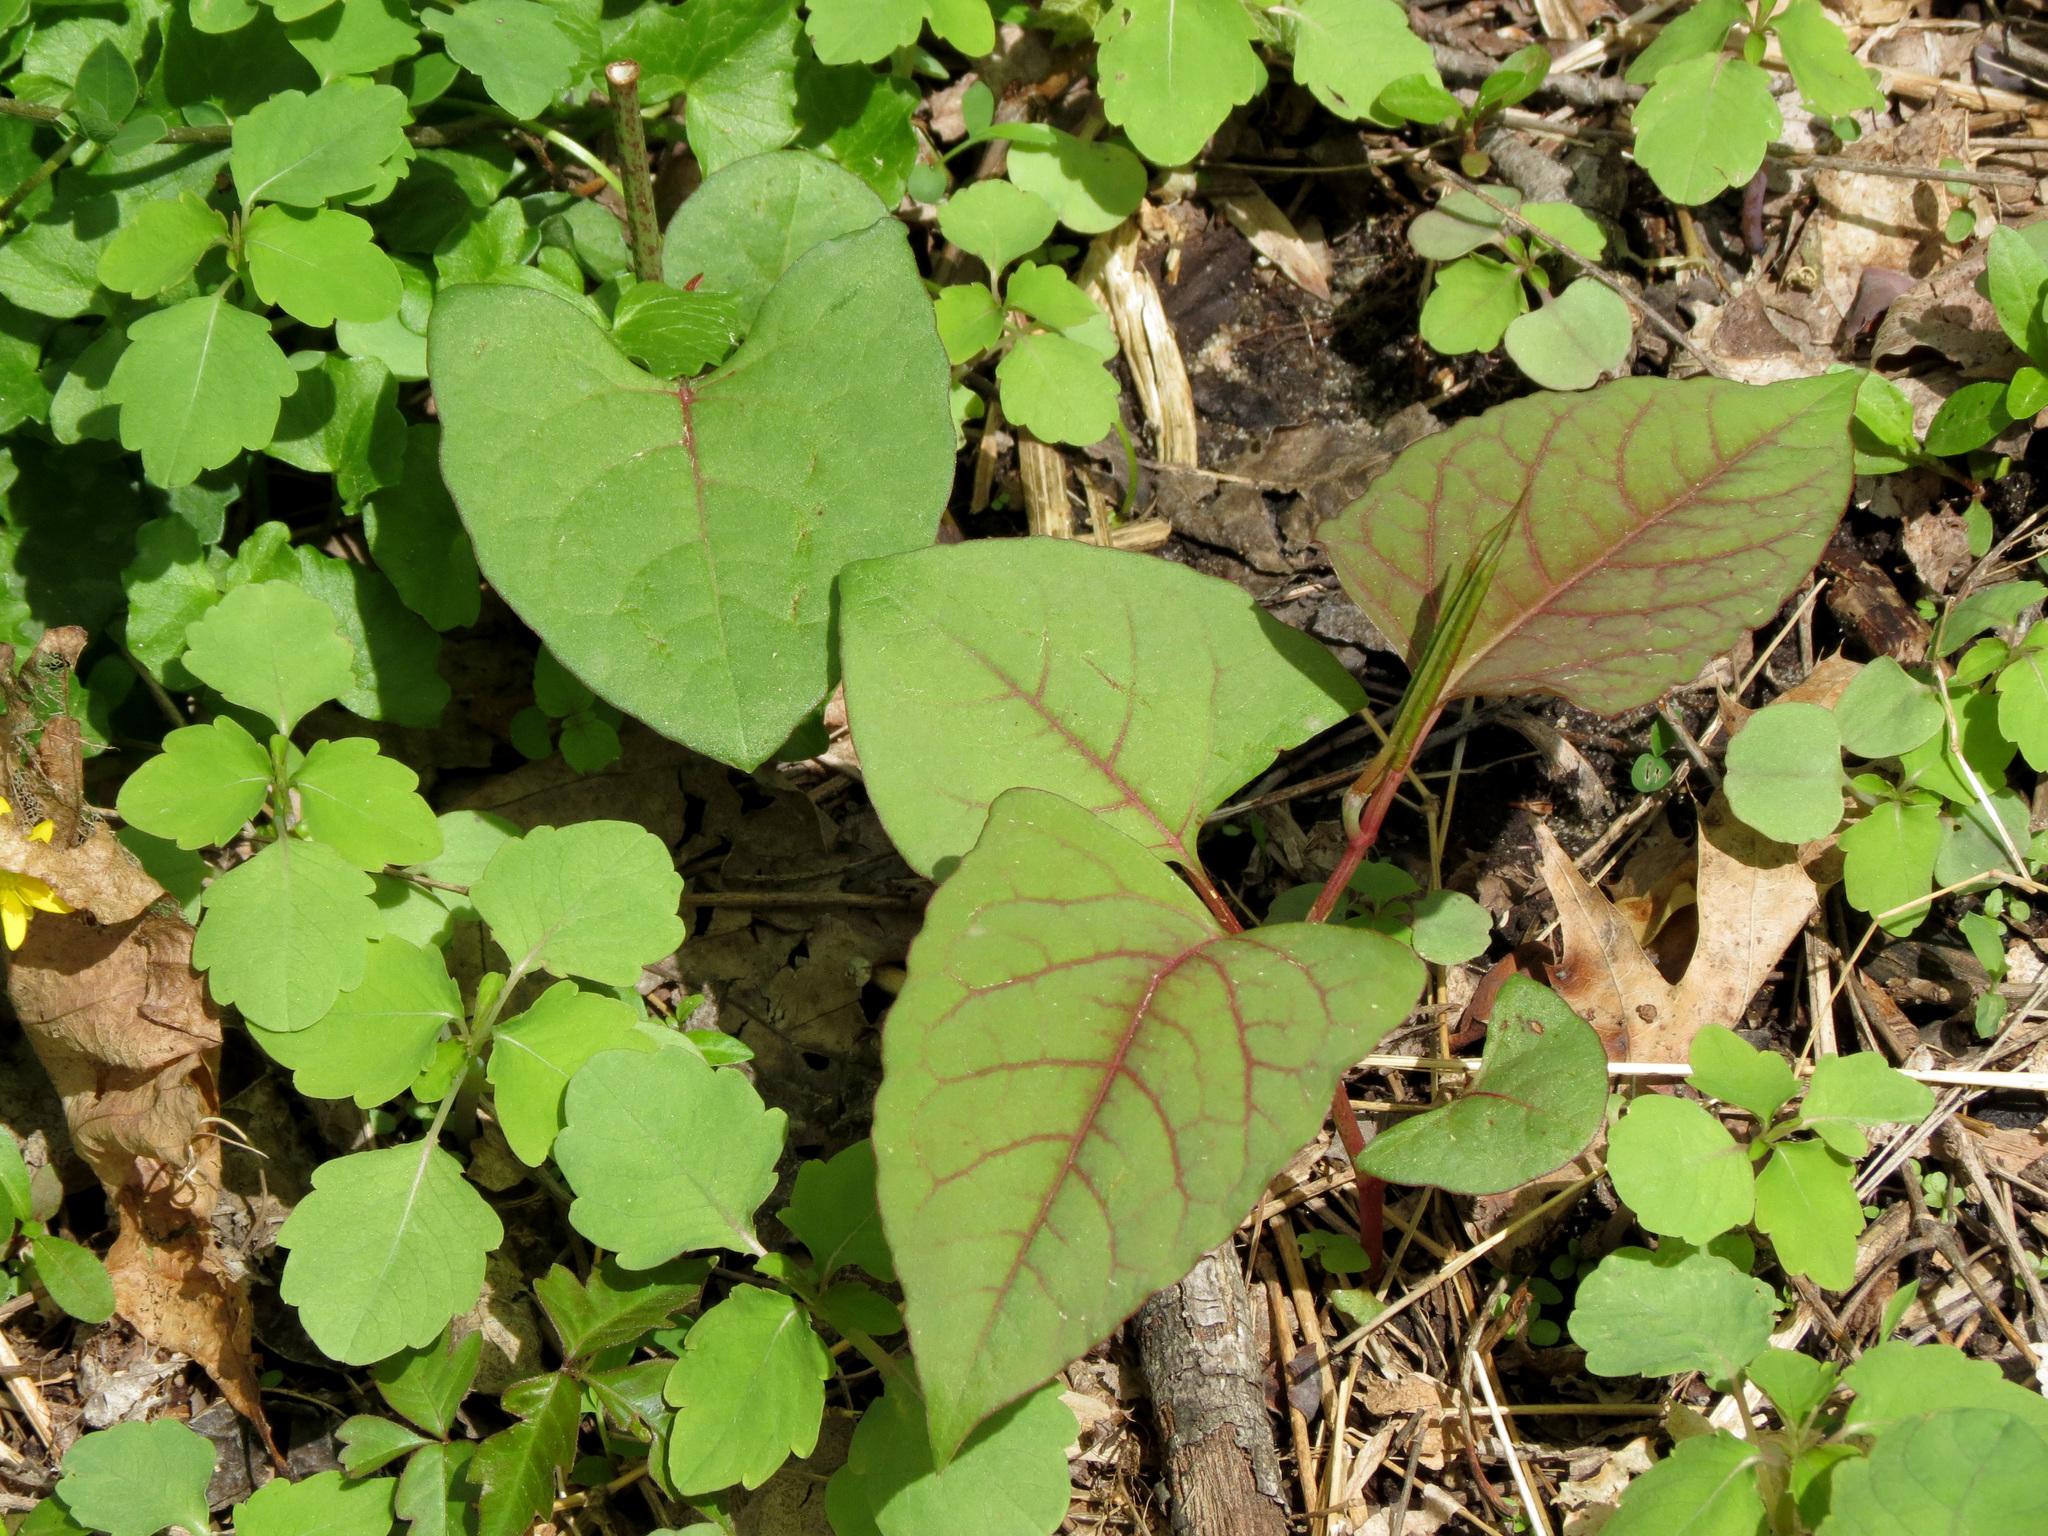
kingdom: Plantae
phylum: Tracheophyta
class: Magnoliopsida
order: Caryophyllales
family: Polygonaceae
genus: Reynoutria
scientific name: Reynoutria japonica
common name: Japanese knotweed
